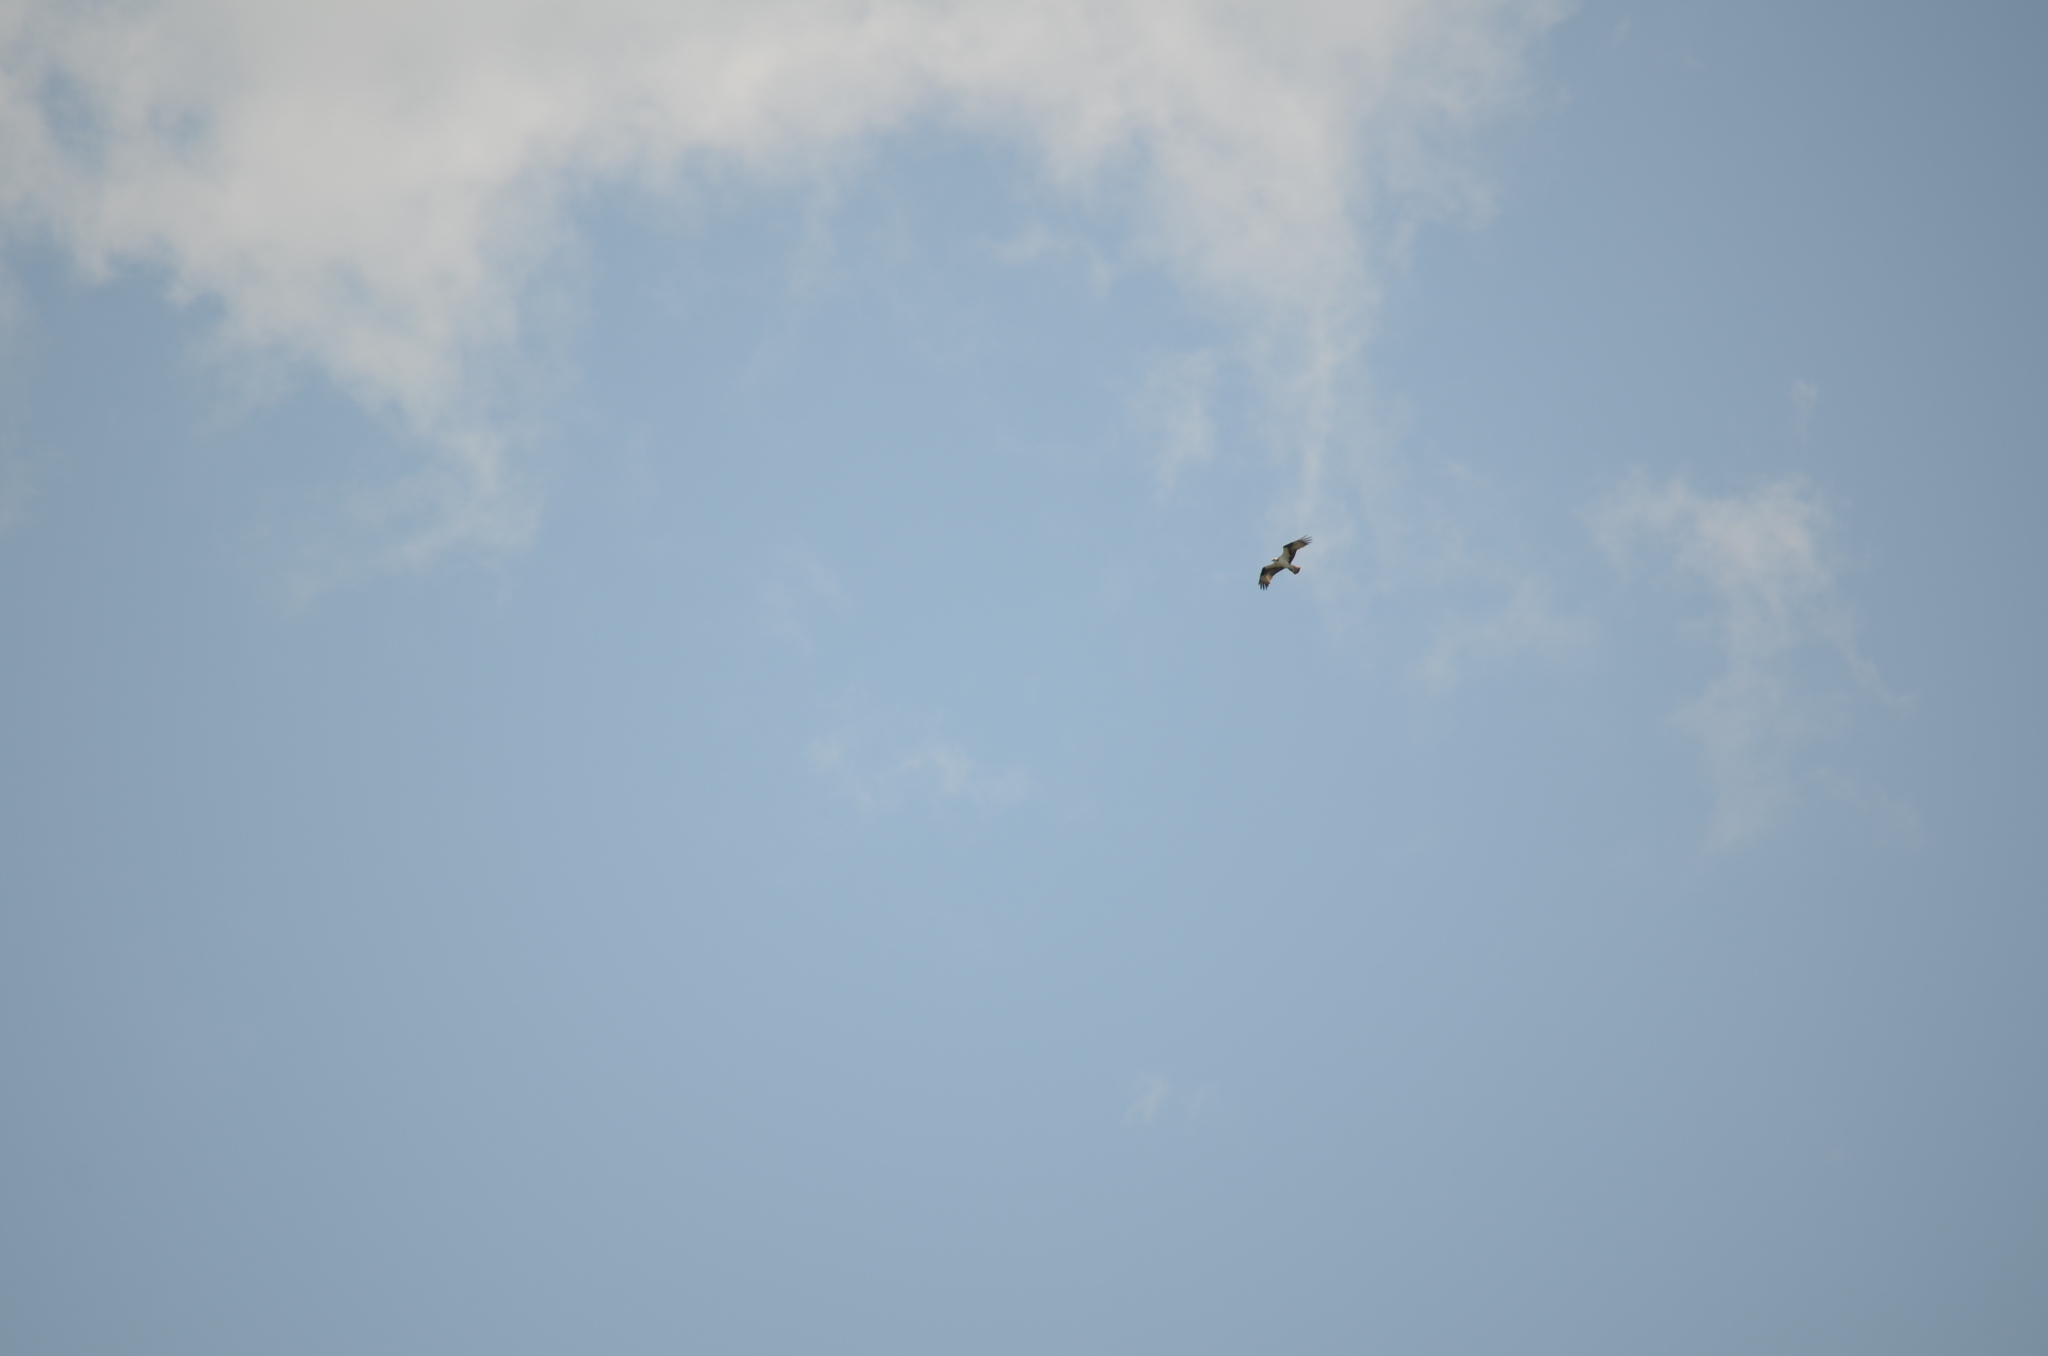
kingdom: Animalia
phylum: Chordata
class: Aves
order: Accipitriformes
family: Pandionidae
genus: Pandion
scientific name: Pandion haliaetus
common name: Osprey
